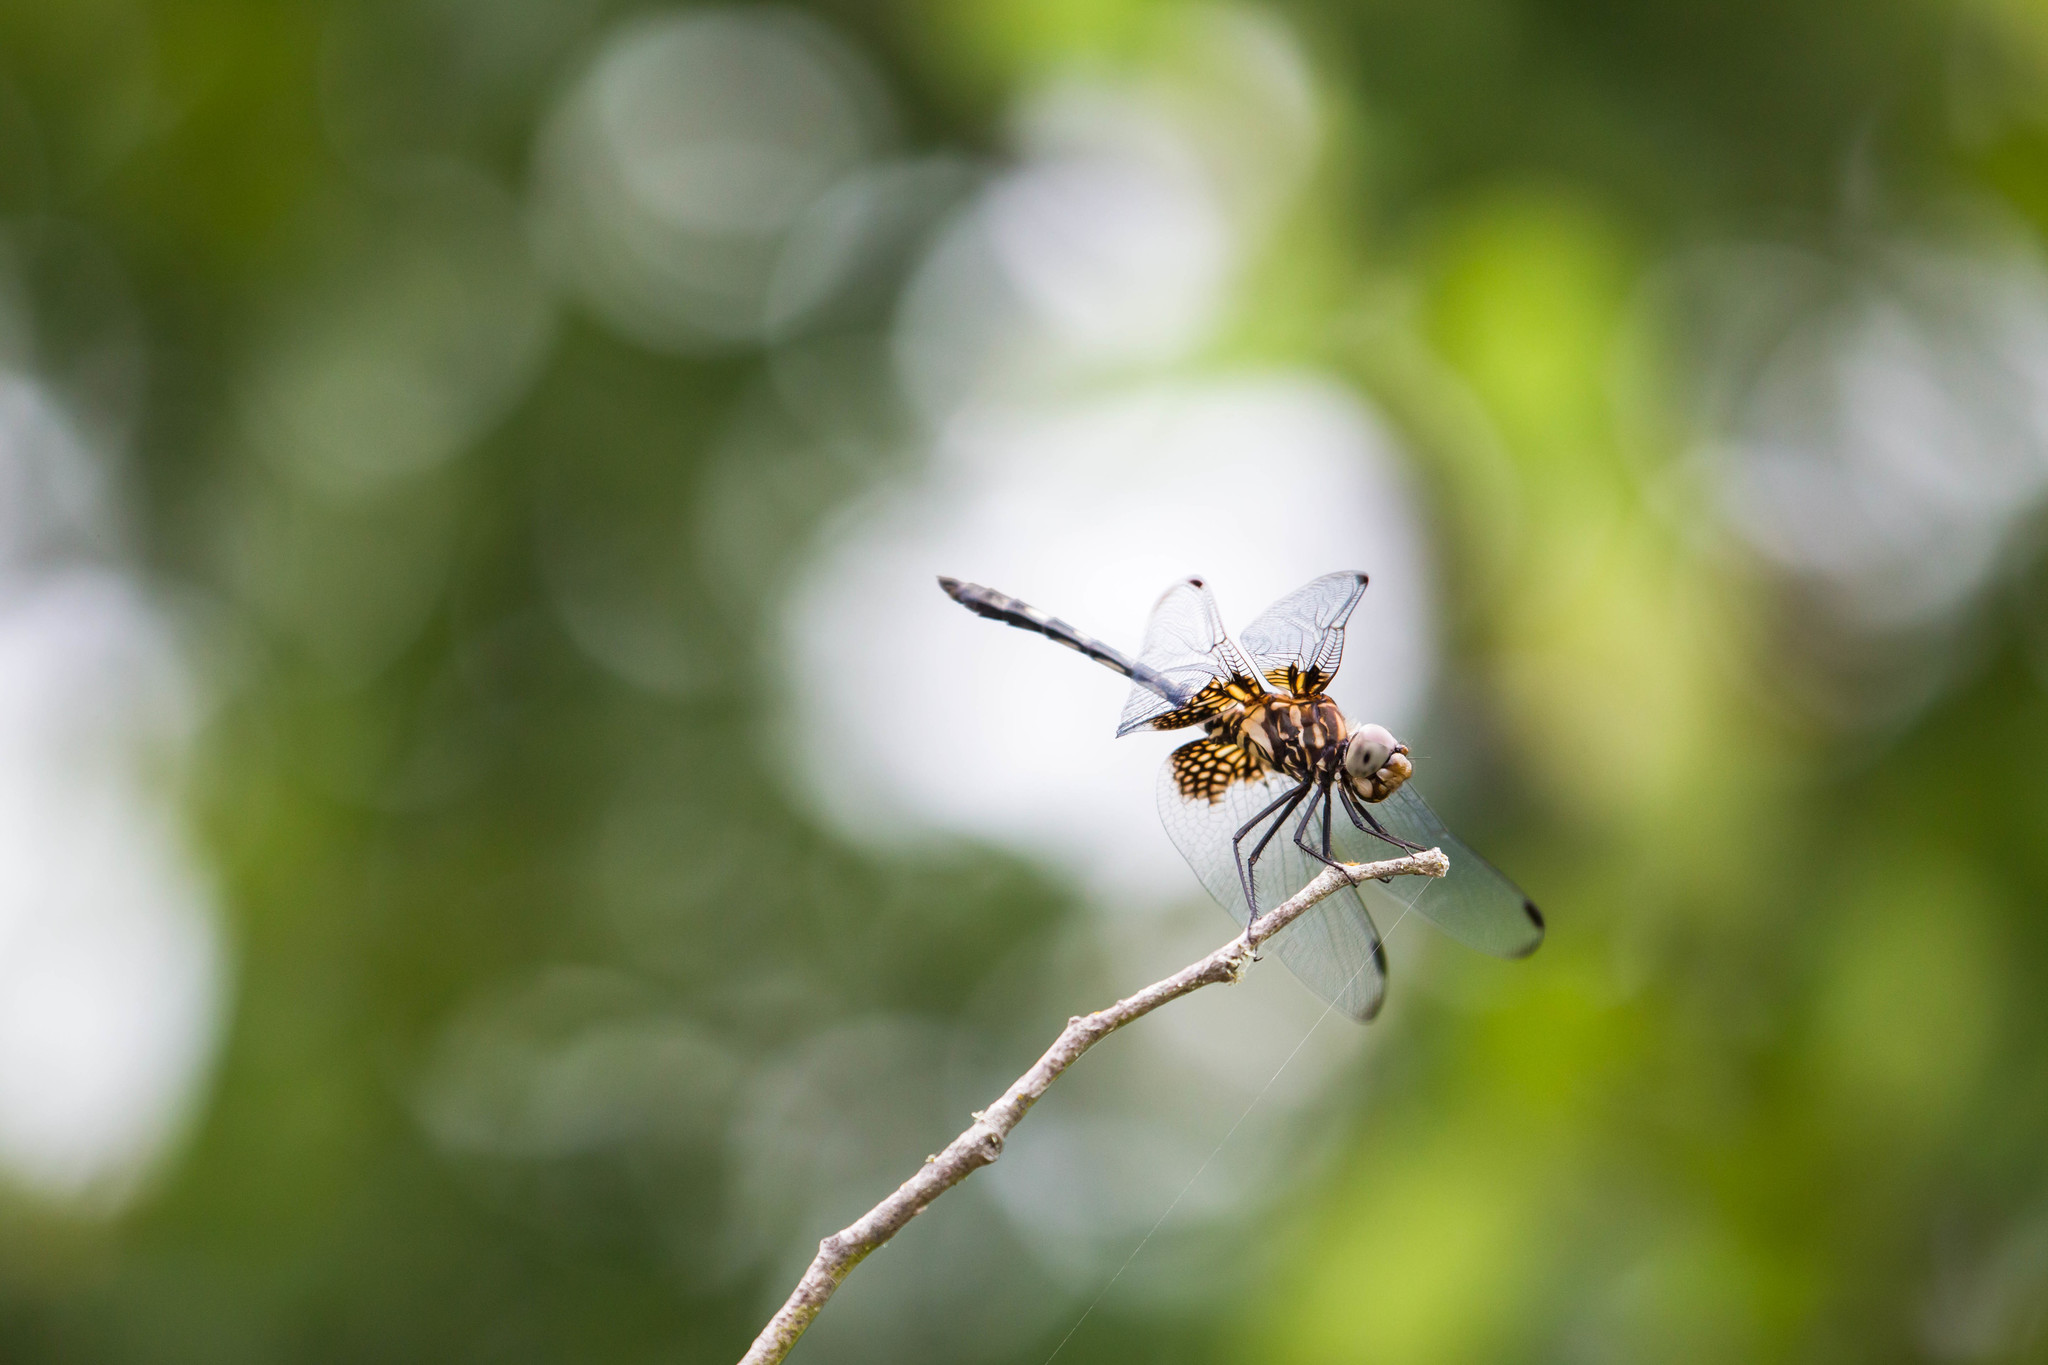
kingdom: Animalia
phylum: Arthropoda
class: Insecta
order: Odonata
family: Libellulidae
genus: Dythemis
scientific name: Dythemis fugax
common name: Checkered setwing
